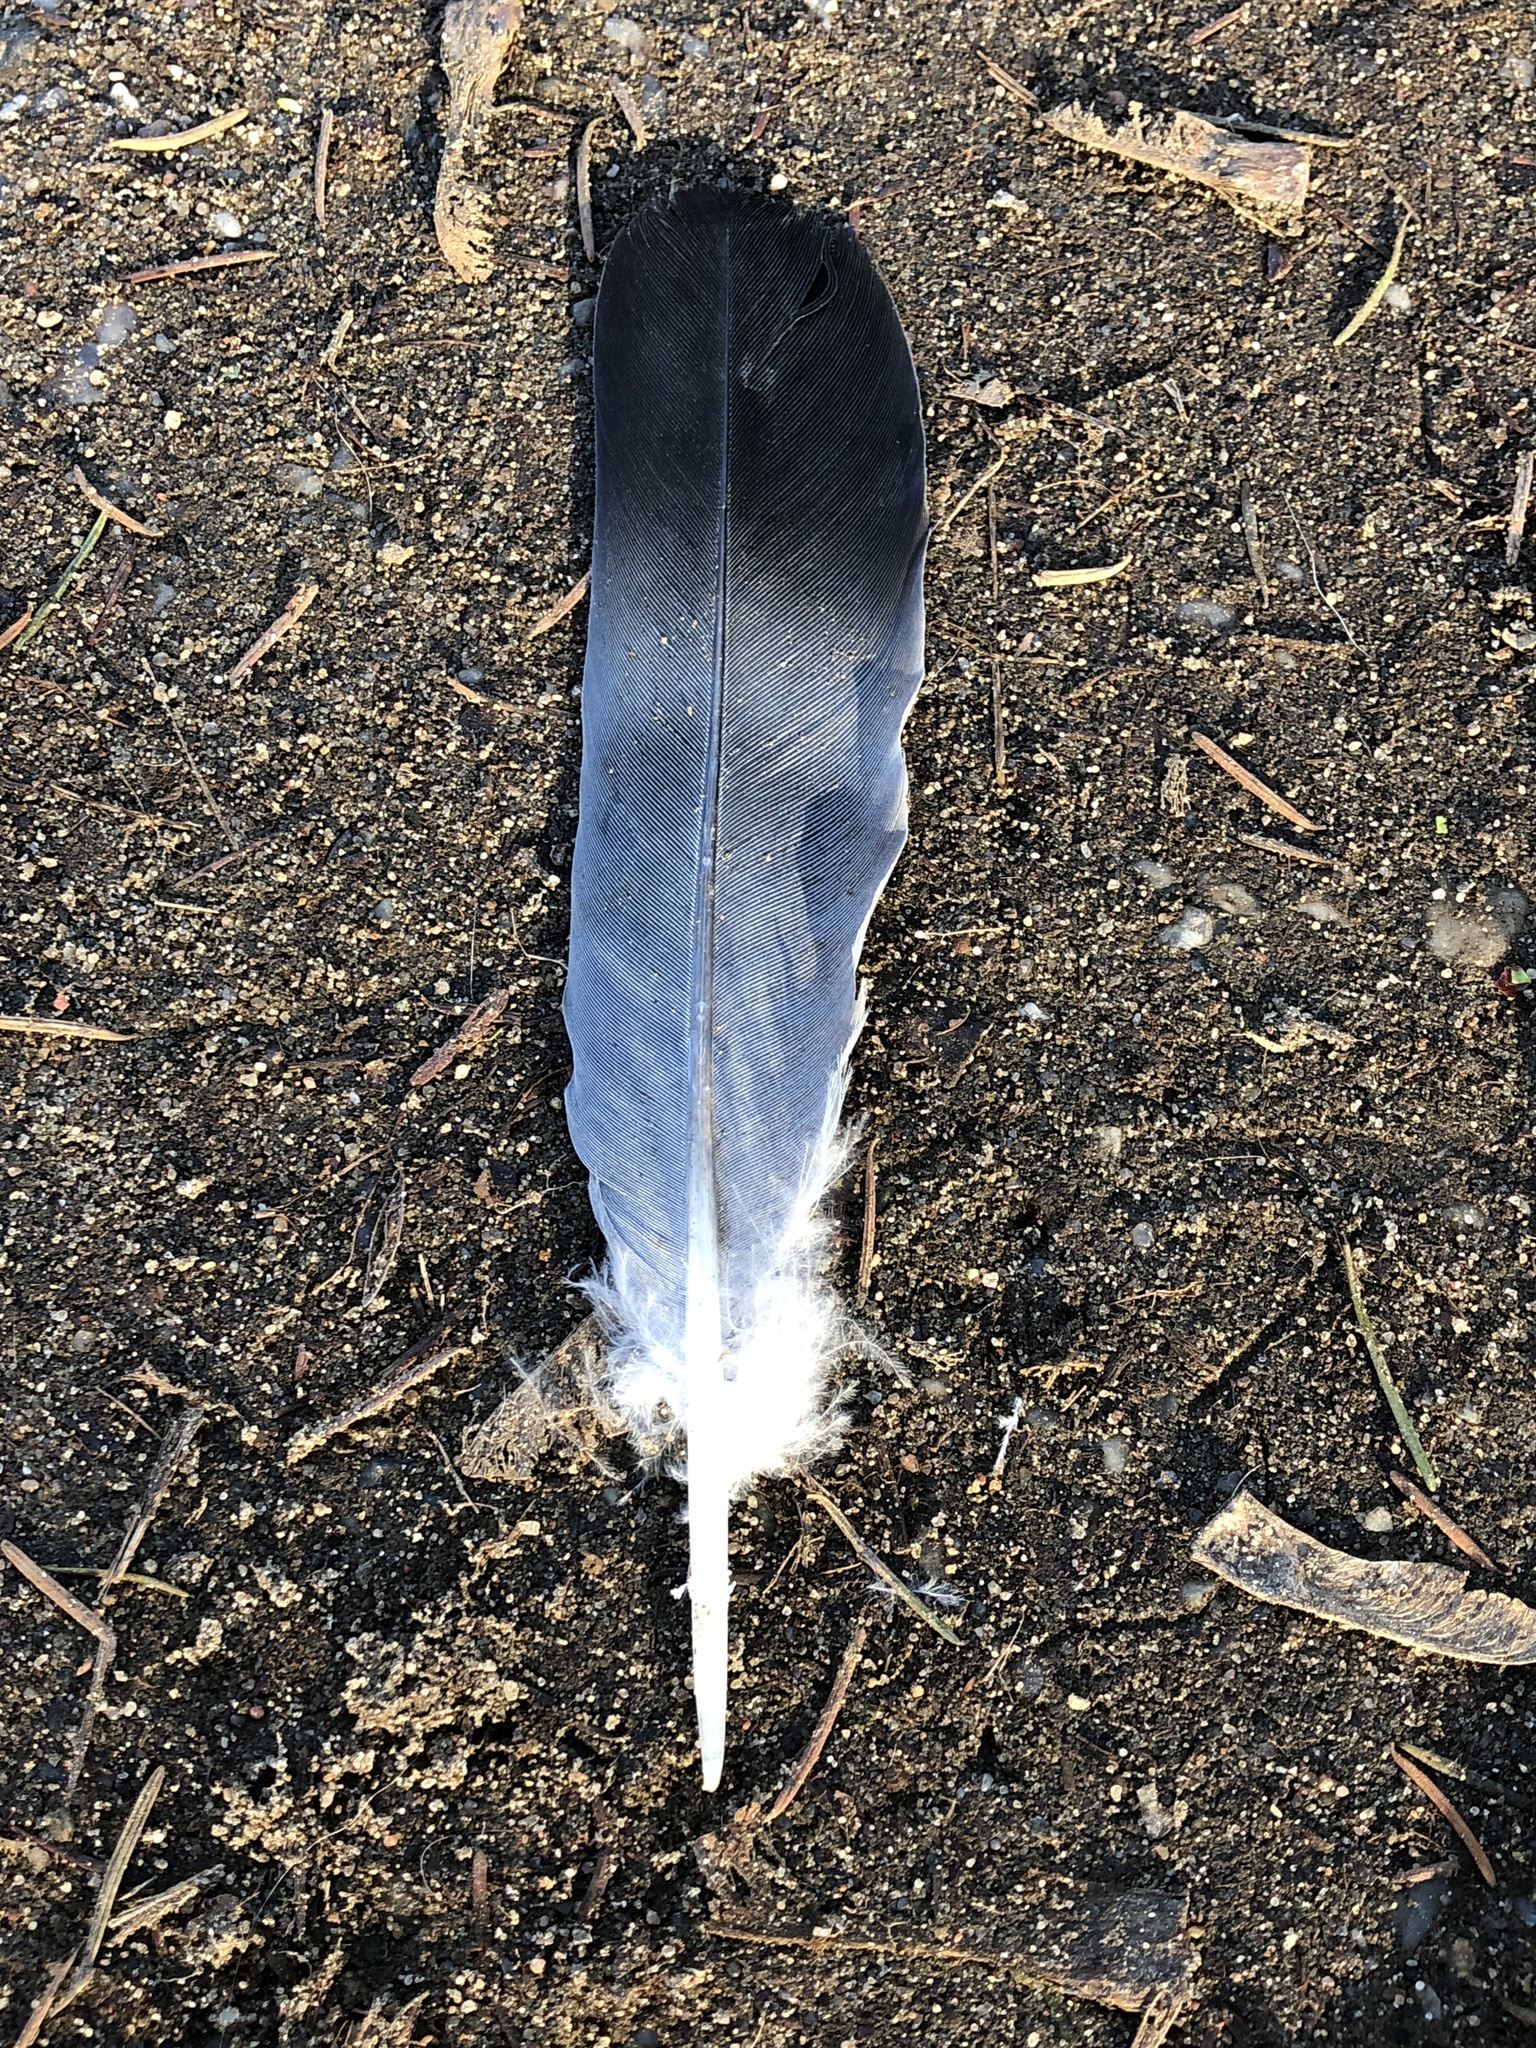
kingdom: Animalia
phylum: Chordata
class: Aves
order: Columbiformes
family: Columbidae
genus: Columba
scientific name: Columba palumbus
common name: Common wood pigeon
